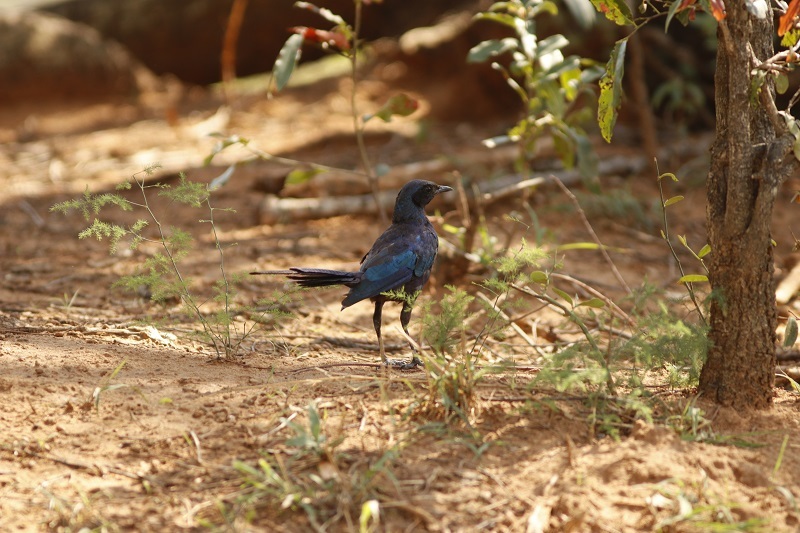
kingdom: Animalia
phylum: Chordata
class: Aves
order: Passeriformes
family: Sturnidae
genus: Lamprotornis
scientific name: Lamprotornis mevesii
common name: Meves's starling
